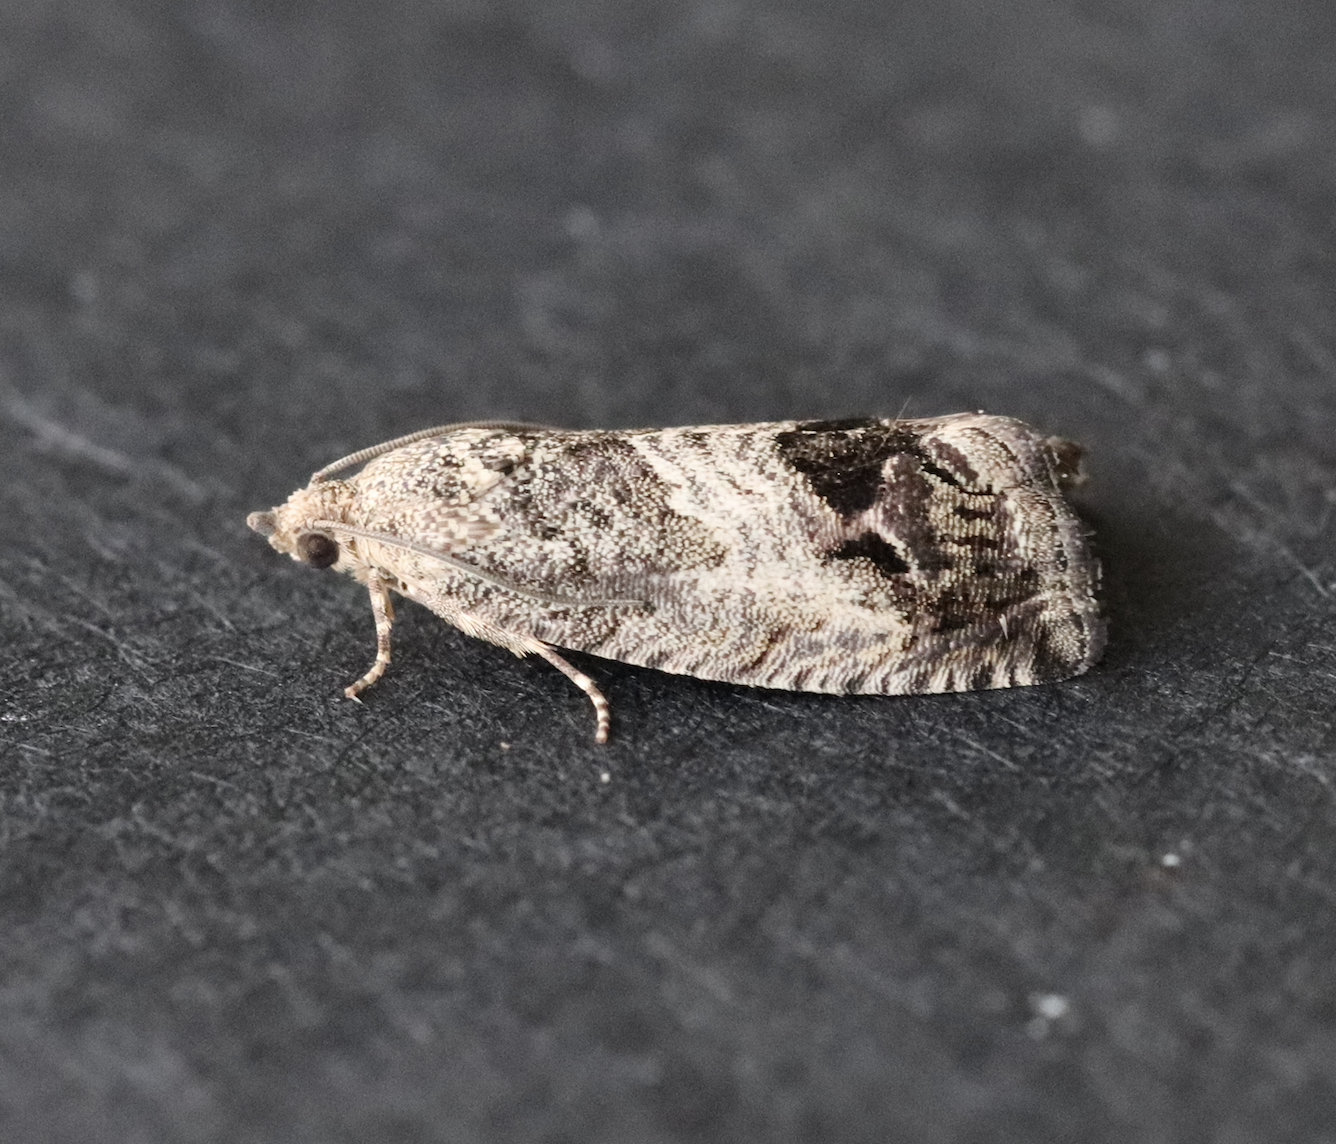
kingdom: Animalia
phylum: Arthropoda
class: Insecta
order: Lepidoptera
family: Tortricidae
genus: Cydia
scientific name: Cydia splendana
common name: De: kastanienwickler, eichenwickler es: oruga de la castaña fr: carpocapse des châtaignes it: cidia o tortrice tardiva delle castagne pt: bichado das castanhas gb: acorn moth, chestnut fruit tortrix
